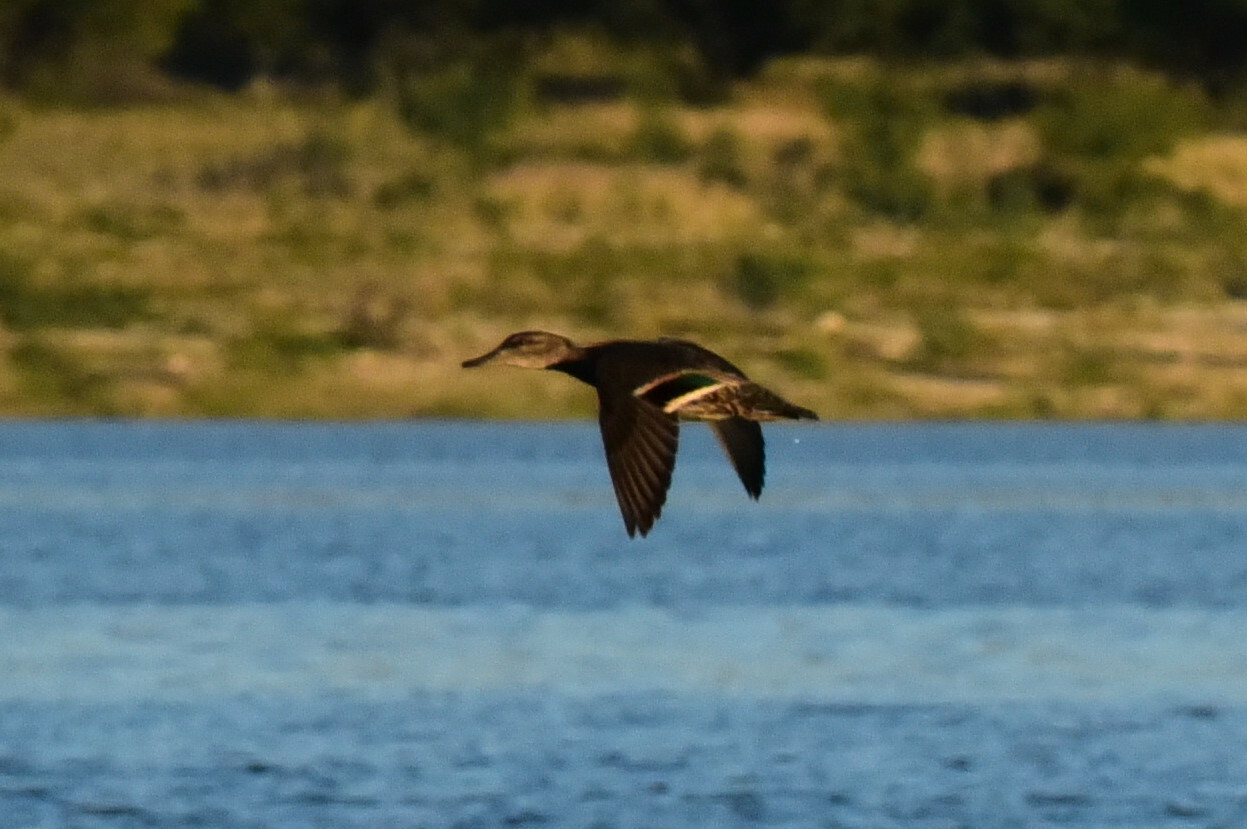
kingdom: Animalia
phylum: Chordata
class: Aves
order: Anseriformes
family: Anatidae
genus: Anas
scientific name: Anas crecca
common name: Eurasian teal
